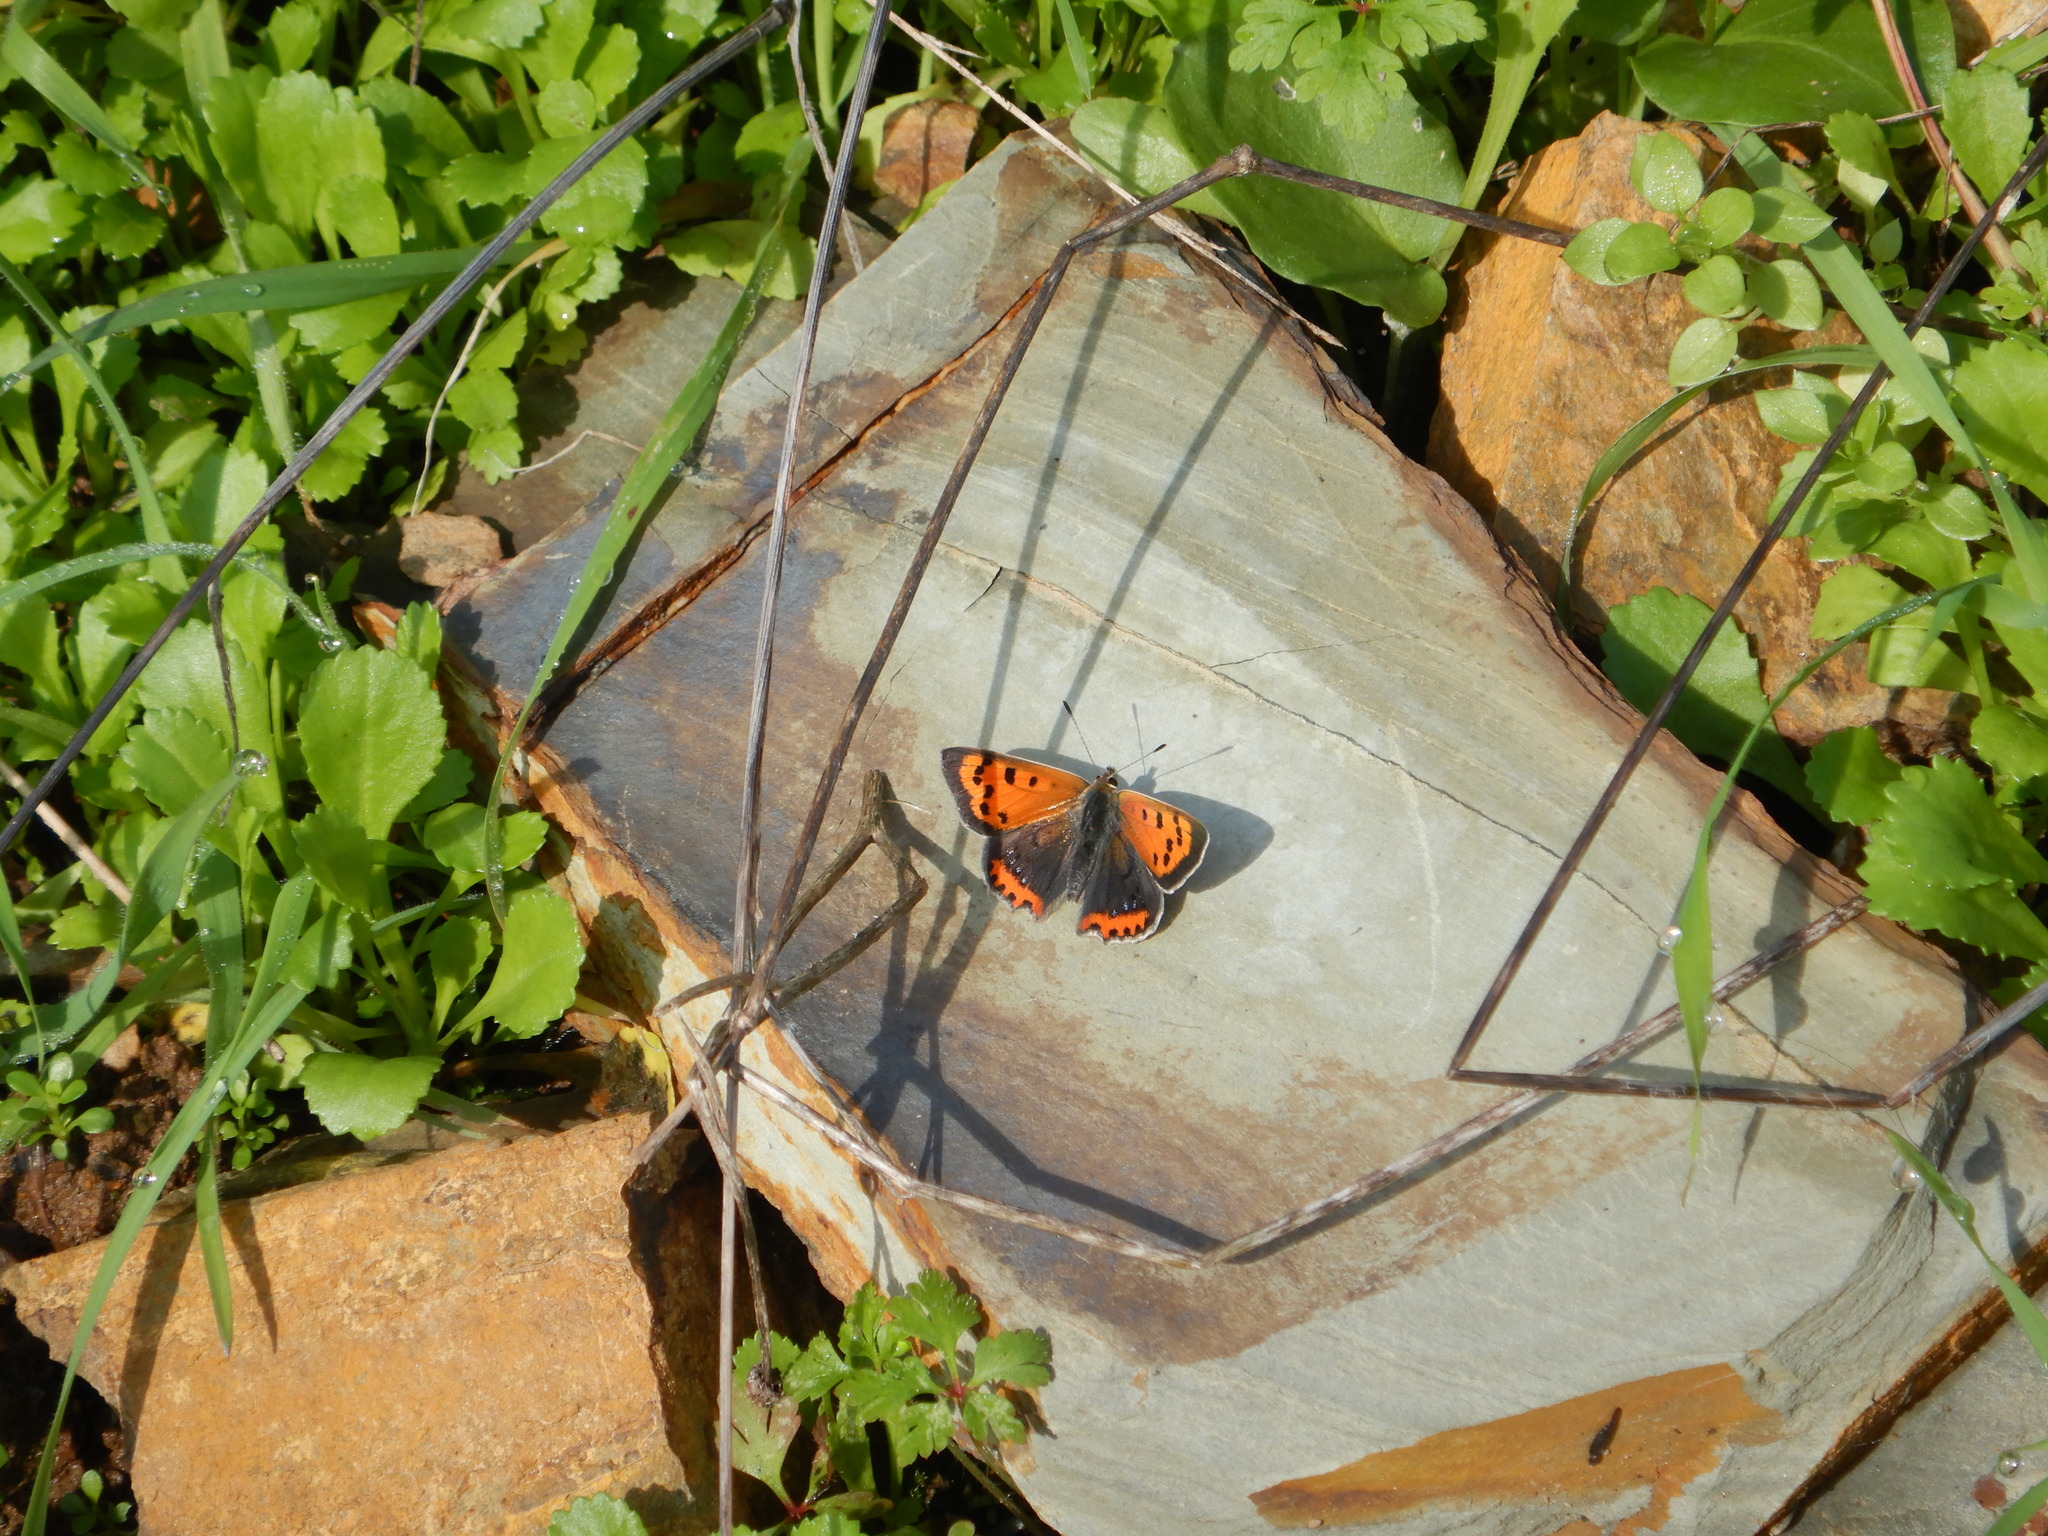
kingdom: Animalia
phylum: Arthropoda
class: Insecta
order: Lepidoptera
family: Lycaenidae
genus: Lycaena
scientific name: Lycaena phlaeas
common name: Small copper
